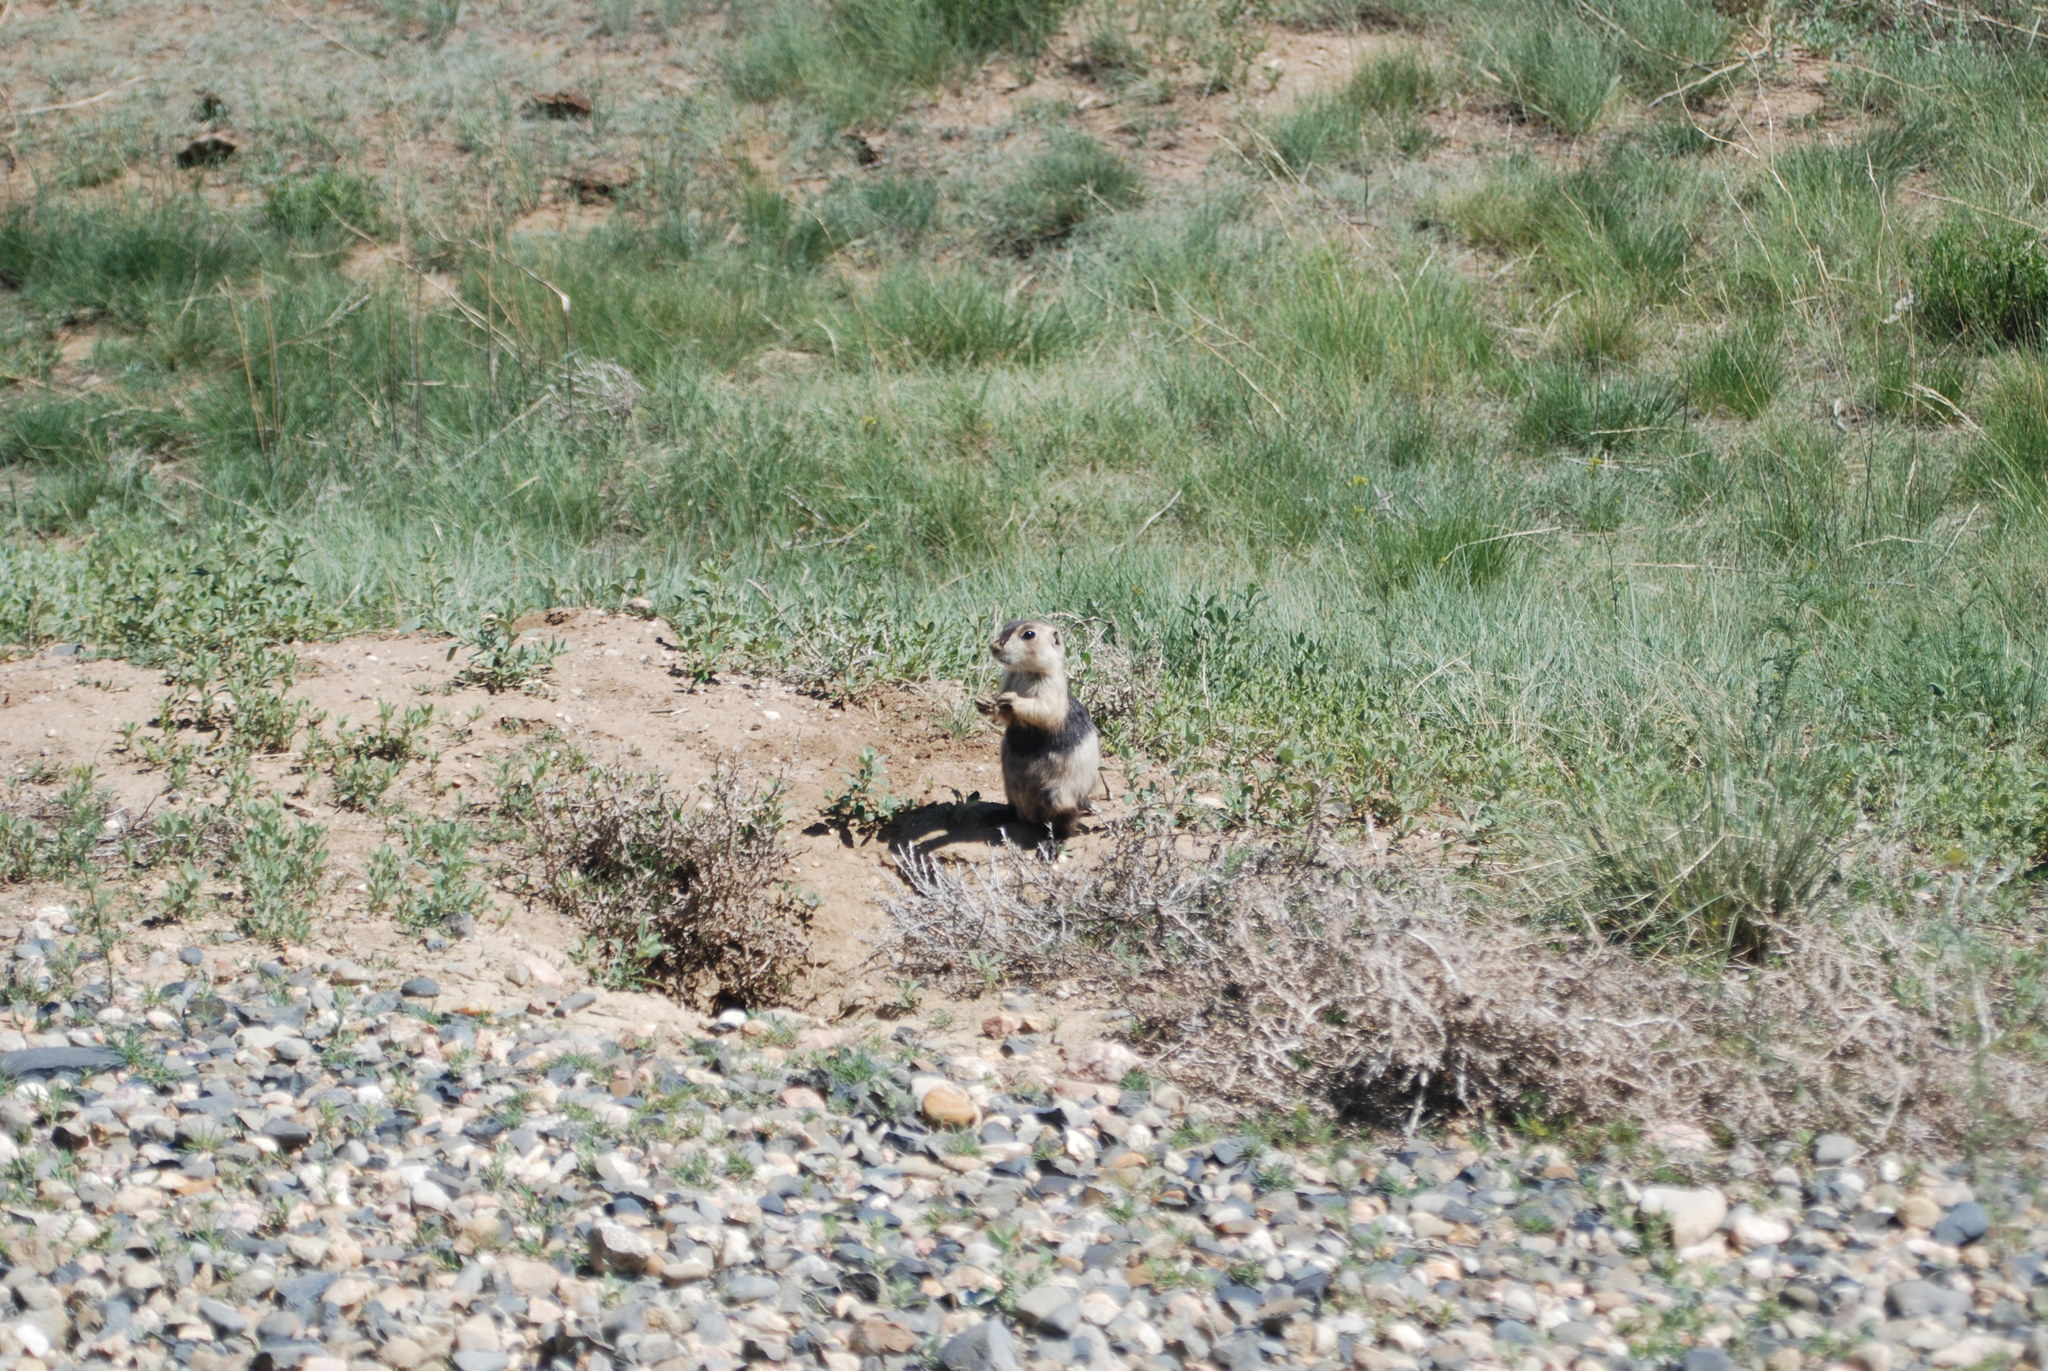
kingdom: Animalia
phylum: Chordata
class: Mammalia
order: Rodentia
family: Sciuridae
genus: Cynomys
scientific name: Cynomys leucurus
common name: White-tailed prairie dog
